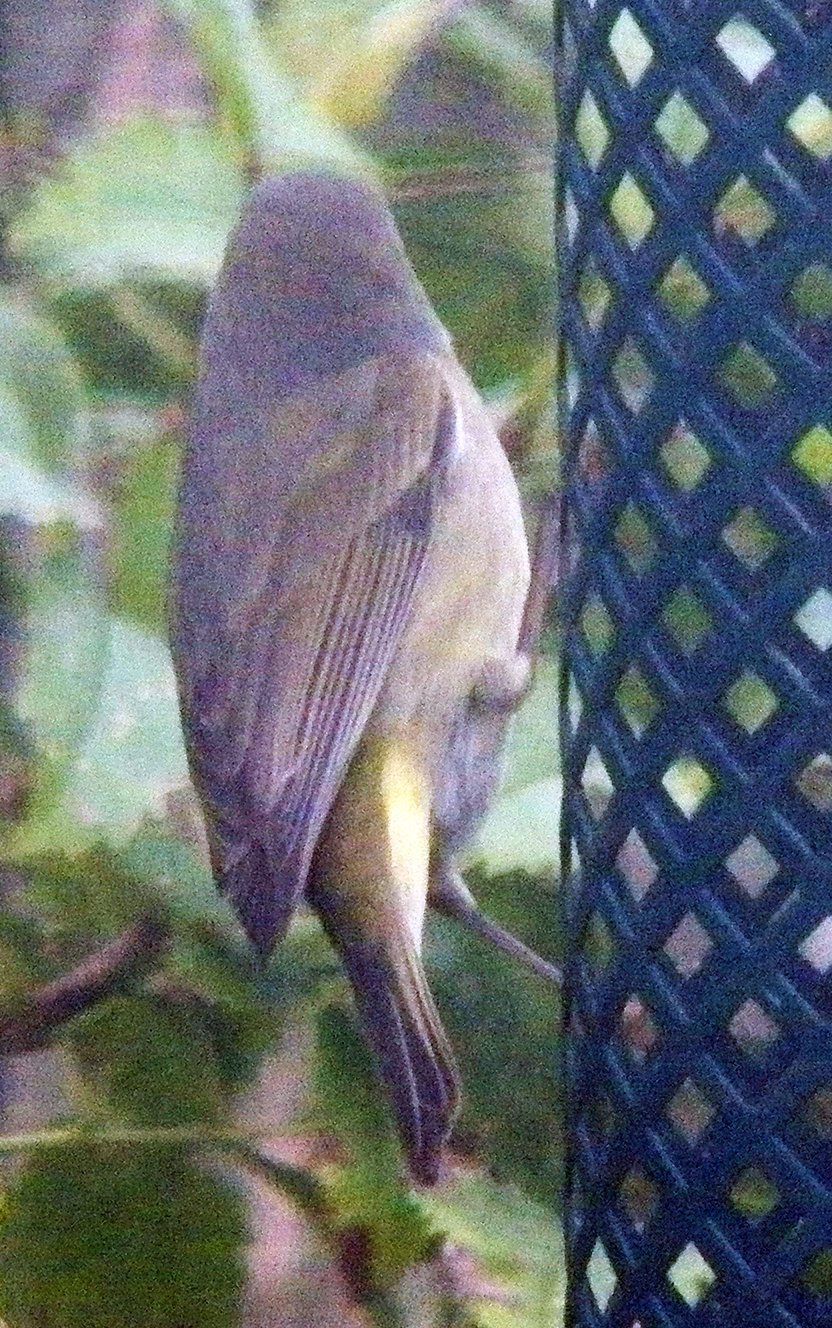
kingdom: Animalia
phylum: Chordata
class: Aves
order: Passeriformes
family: Parulidae
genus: Leiothlypis
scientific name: Leiothlypis celata
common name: Orange-crowned warbler
